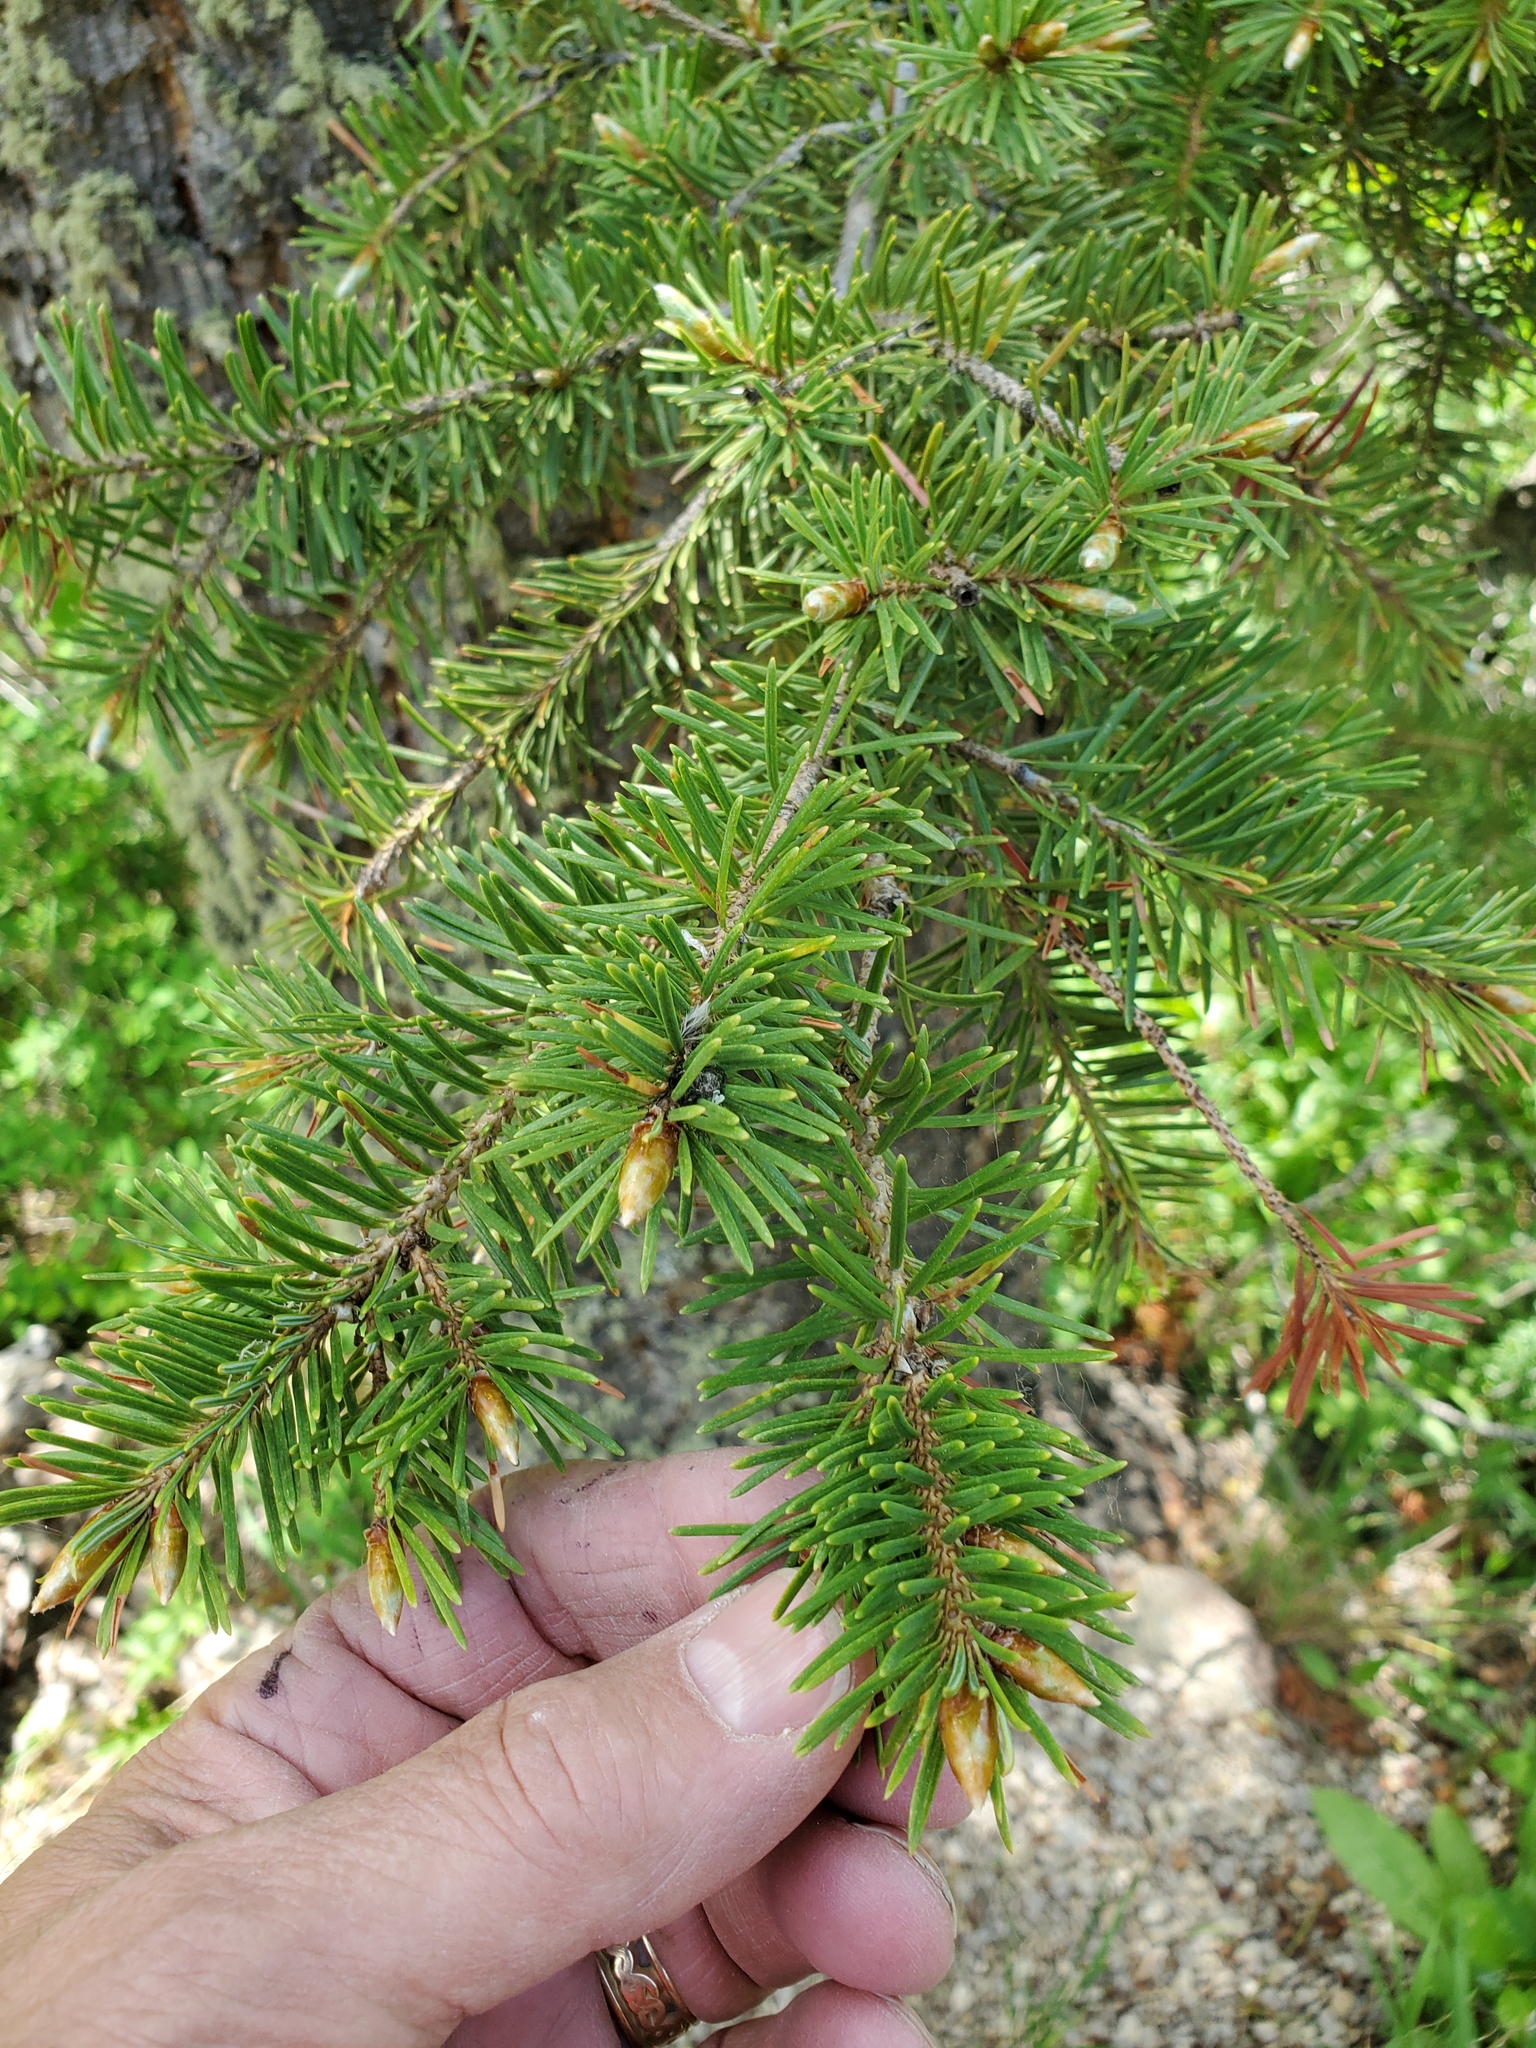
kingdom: Plantae
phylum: Tracheophyta
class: Pinopsida
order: Pinales
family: Pinaceae
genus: Pseudotsuga
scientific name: Pseudotsuga menziesii
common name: Douglas fir
